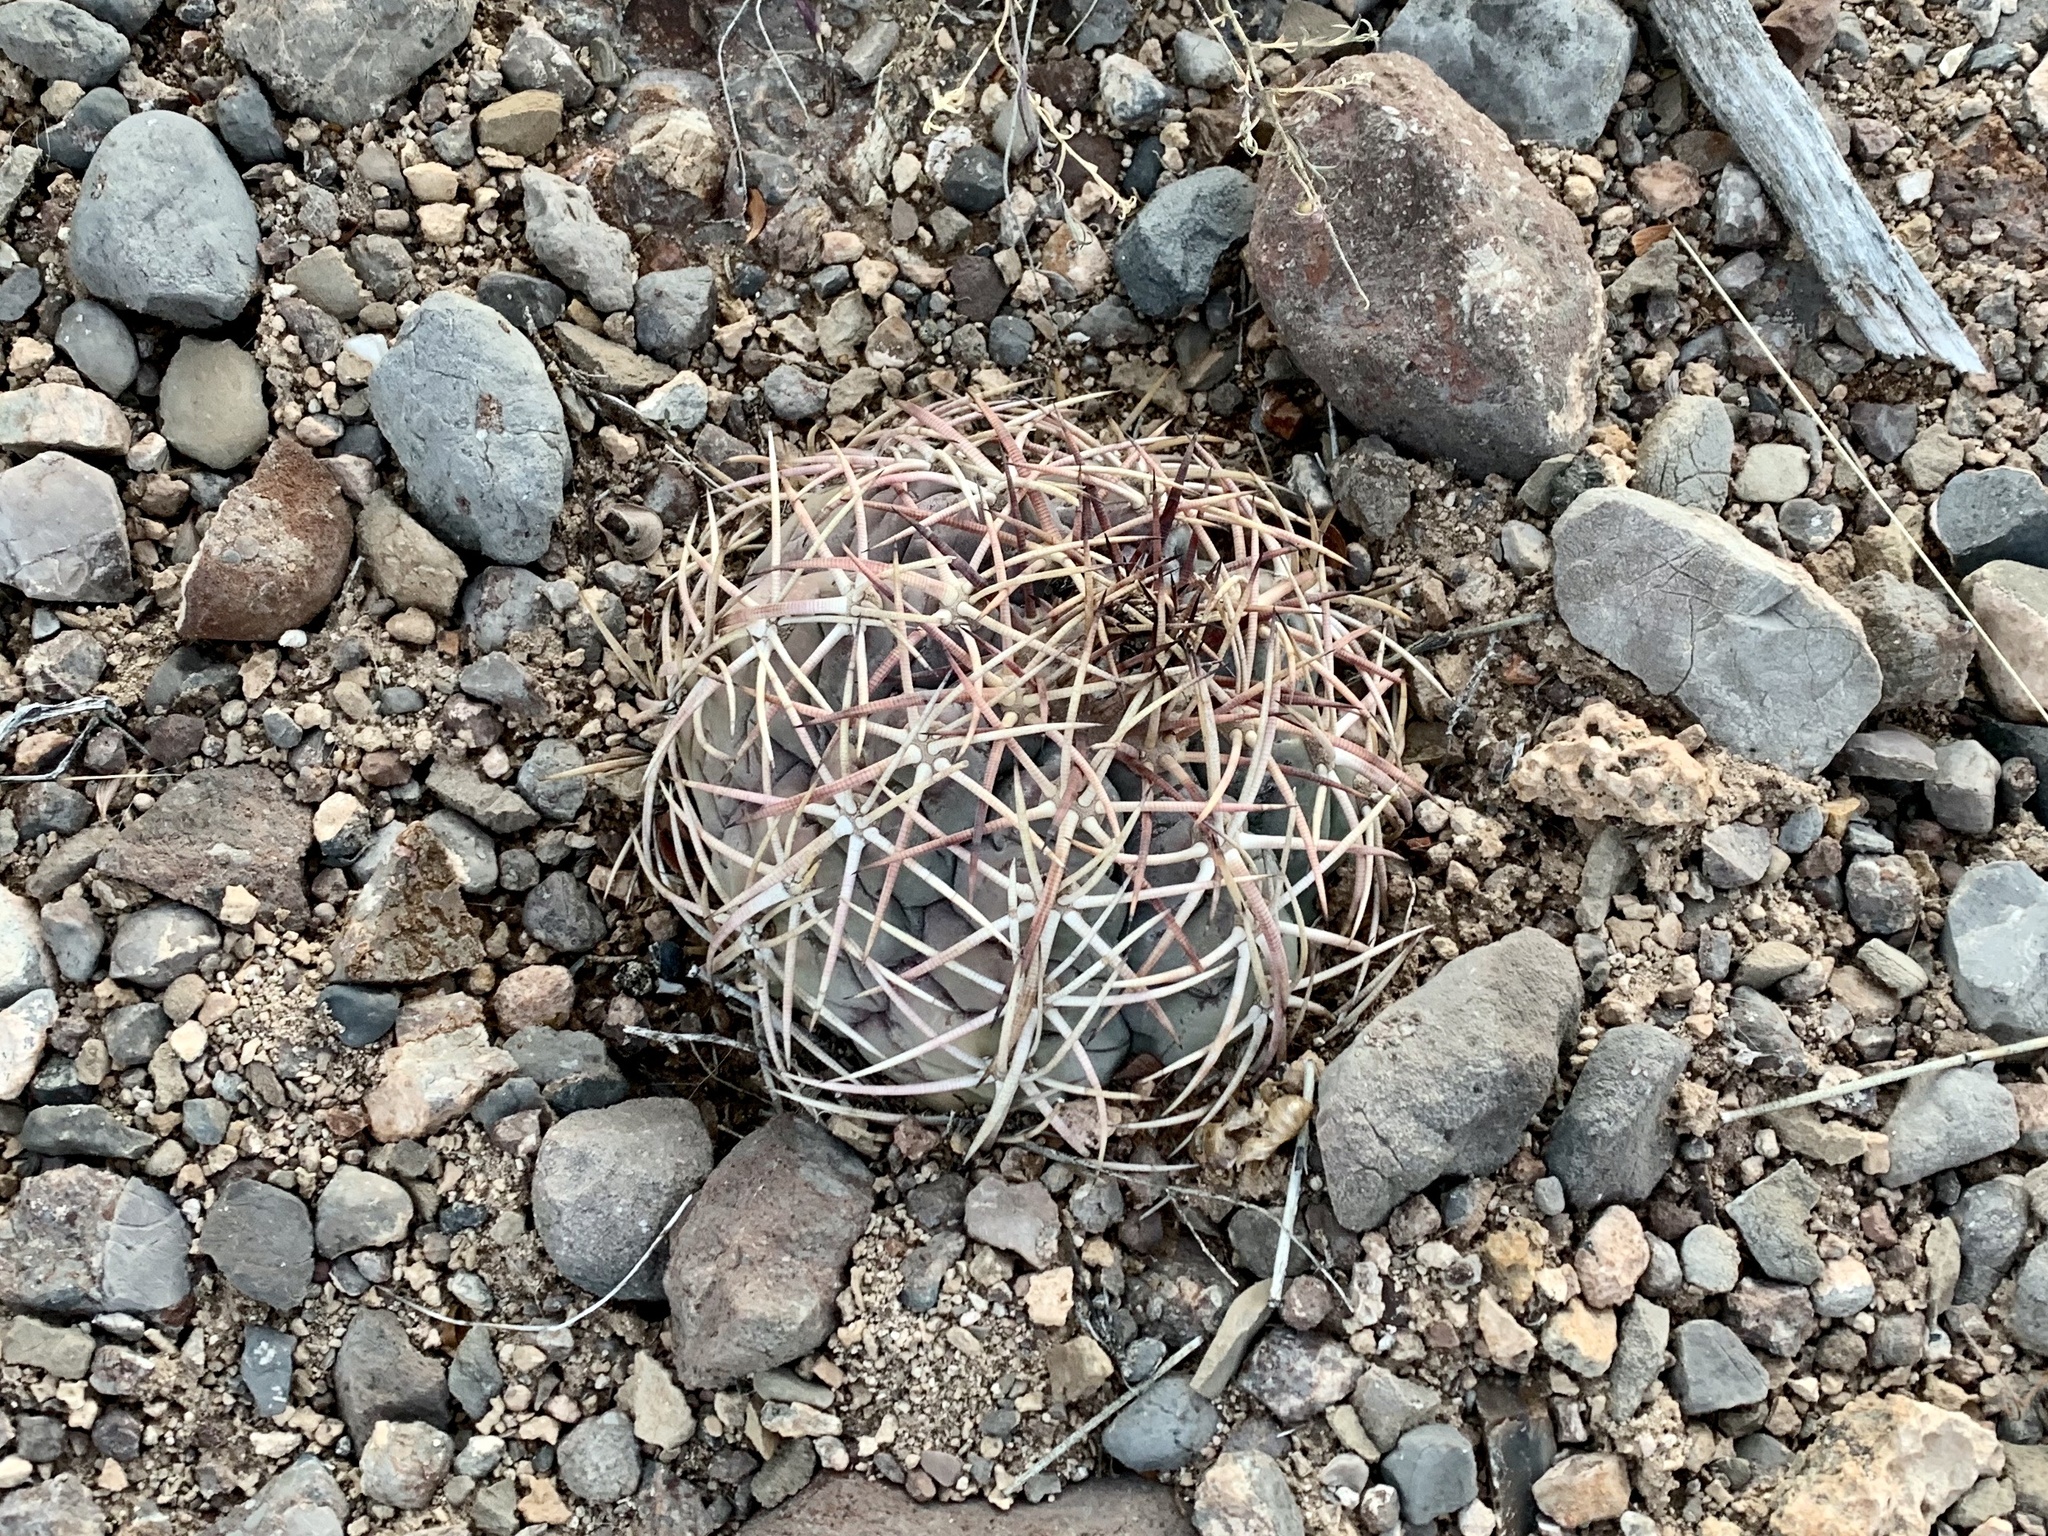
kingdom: Plantae
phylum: Tracheophyta
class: Magnoliopsida
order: Caryophyllales
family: Cactaceae
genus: Echinocactus
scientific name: Echinocactus horizonthalonius
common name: Devilshead
